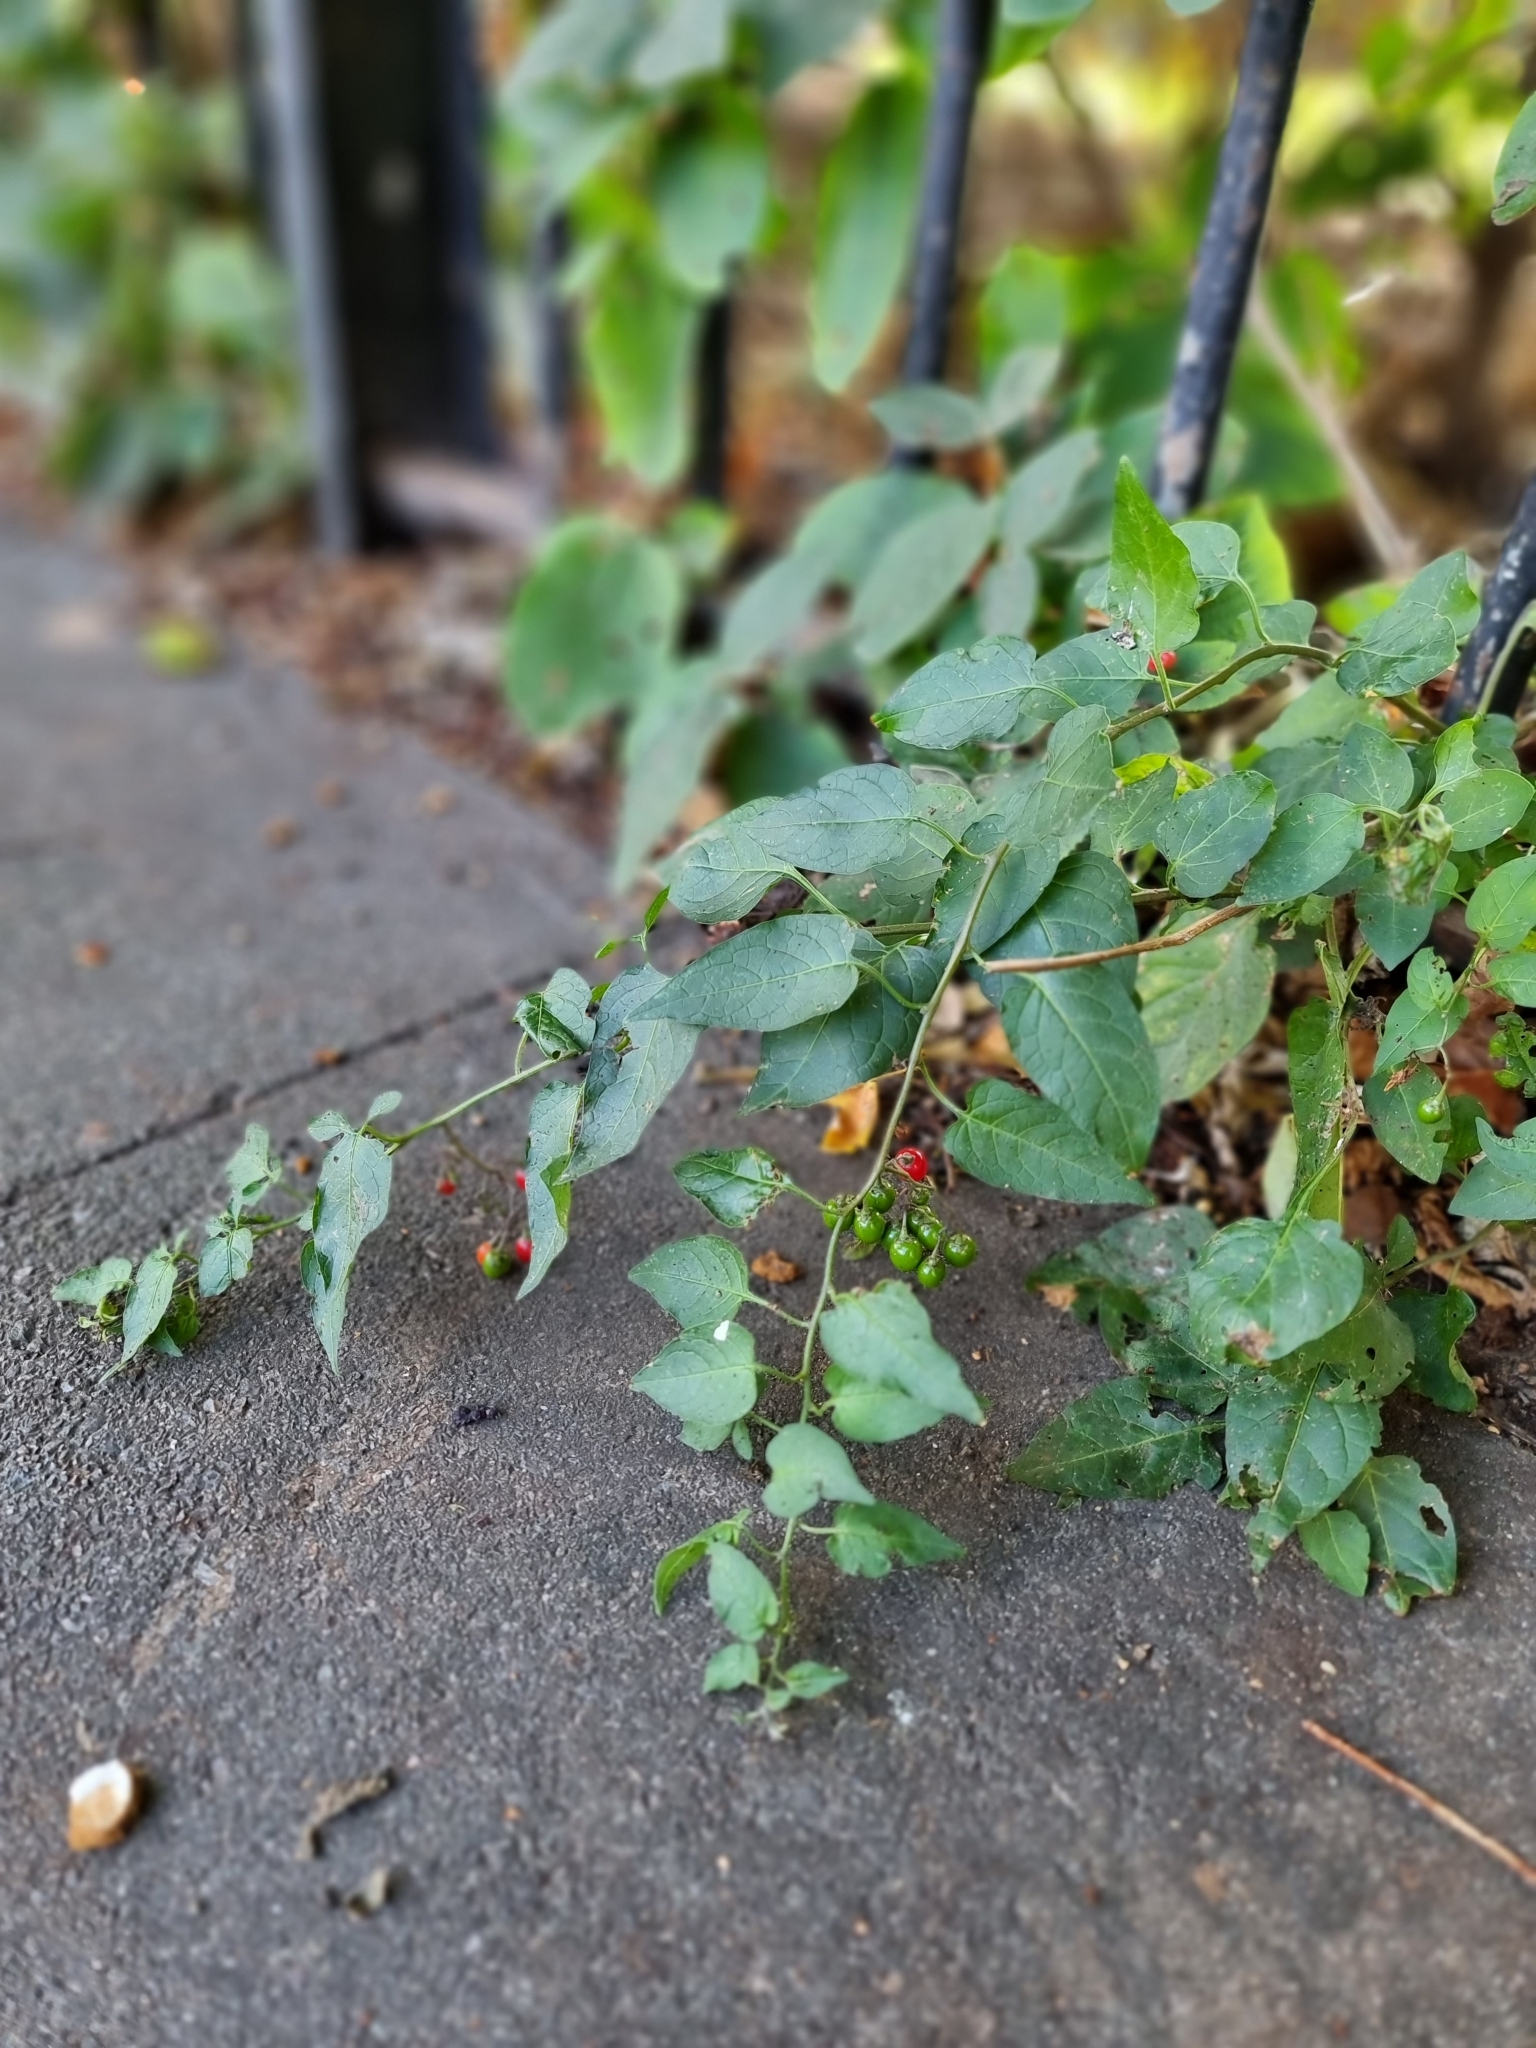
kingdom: Plantae
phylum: Tracheophyta
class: Magnoliopsida
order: Solanales
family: Solanaceae
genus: Solanum
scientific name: Solanum dulcamara
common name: Climbing nightshade
